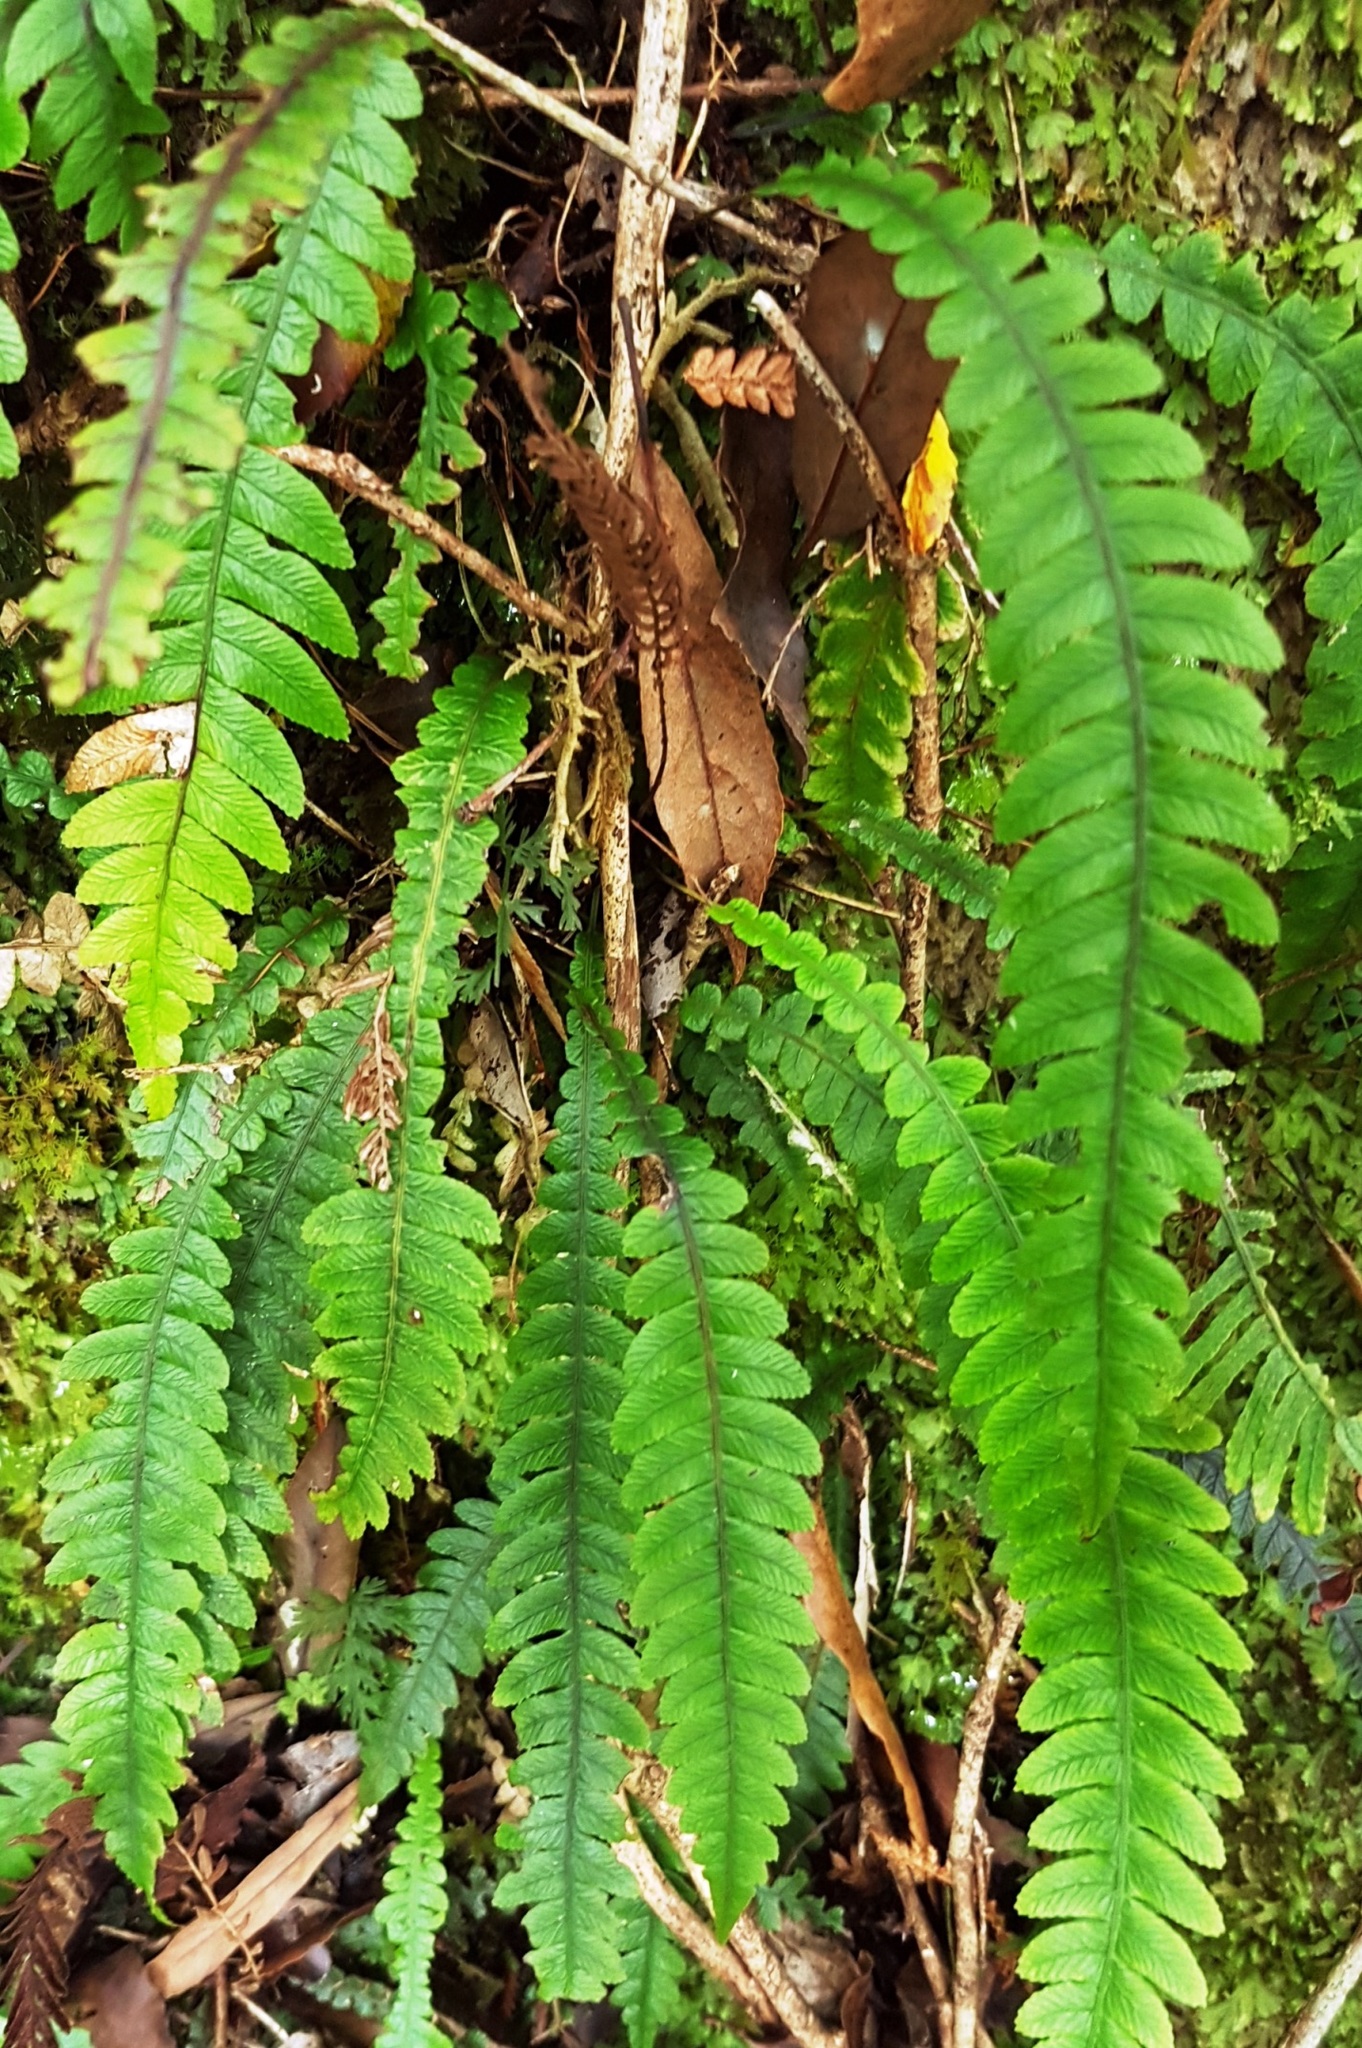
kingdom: Plantae
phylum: Tracheophyta
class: Polypodiopsida
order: Polypodiales
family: Blechnaceae
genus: Austroblechnum
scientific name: Austroblechnum lanceolatum
